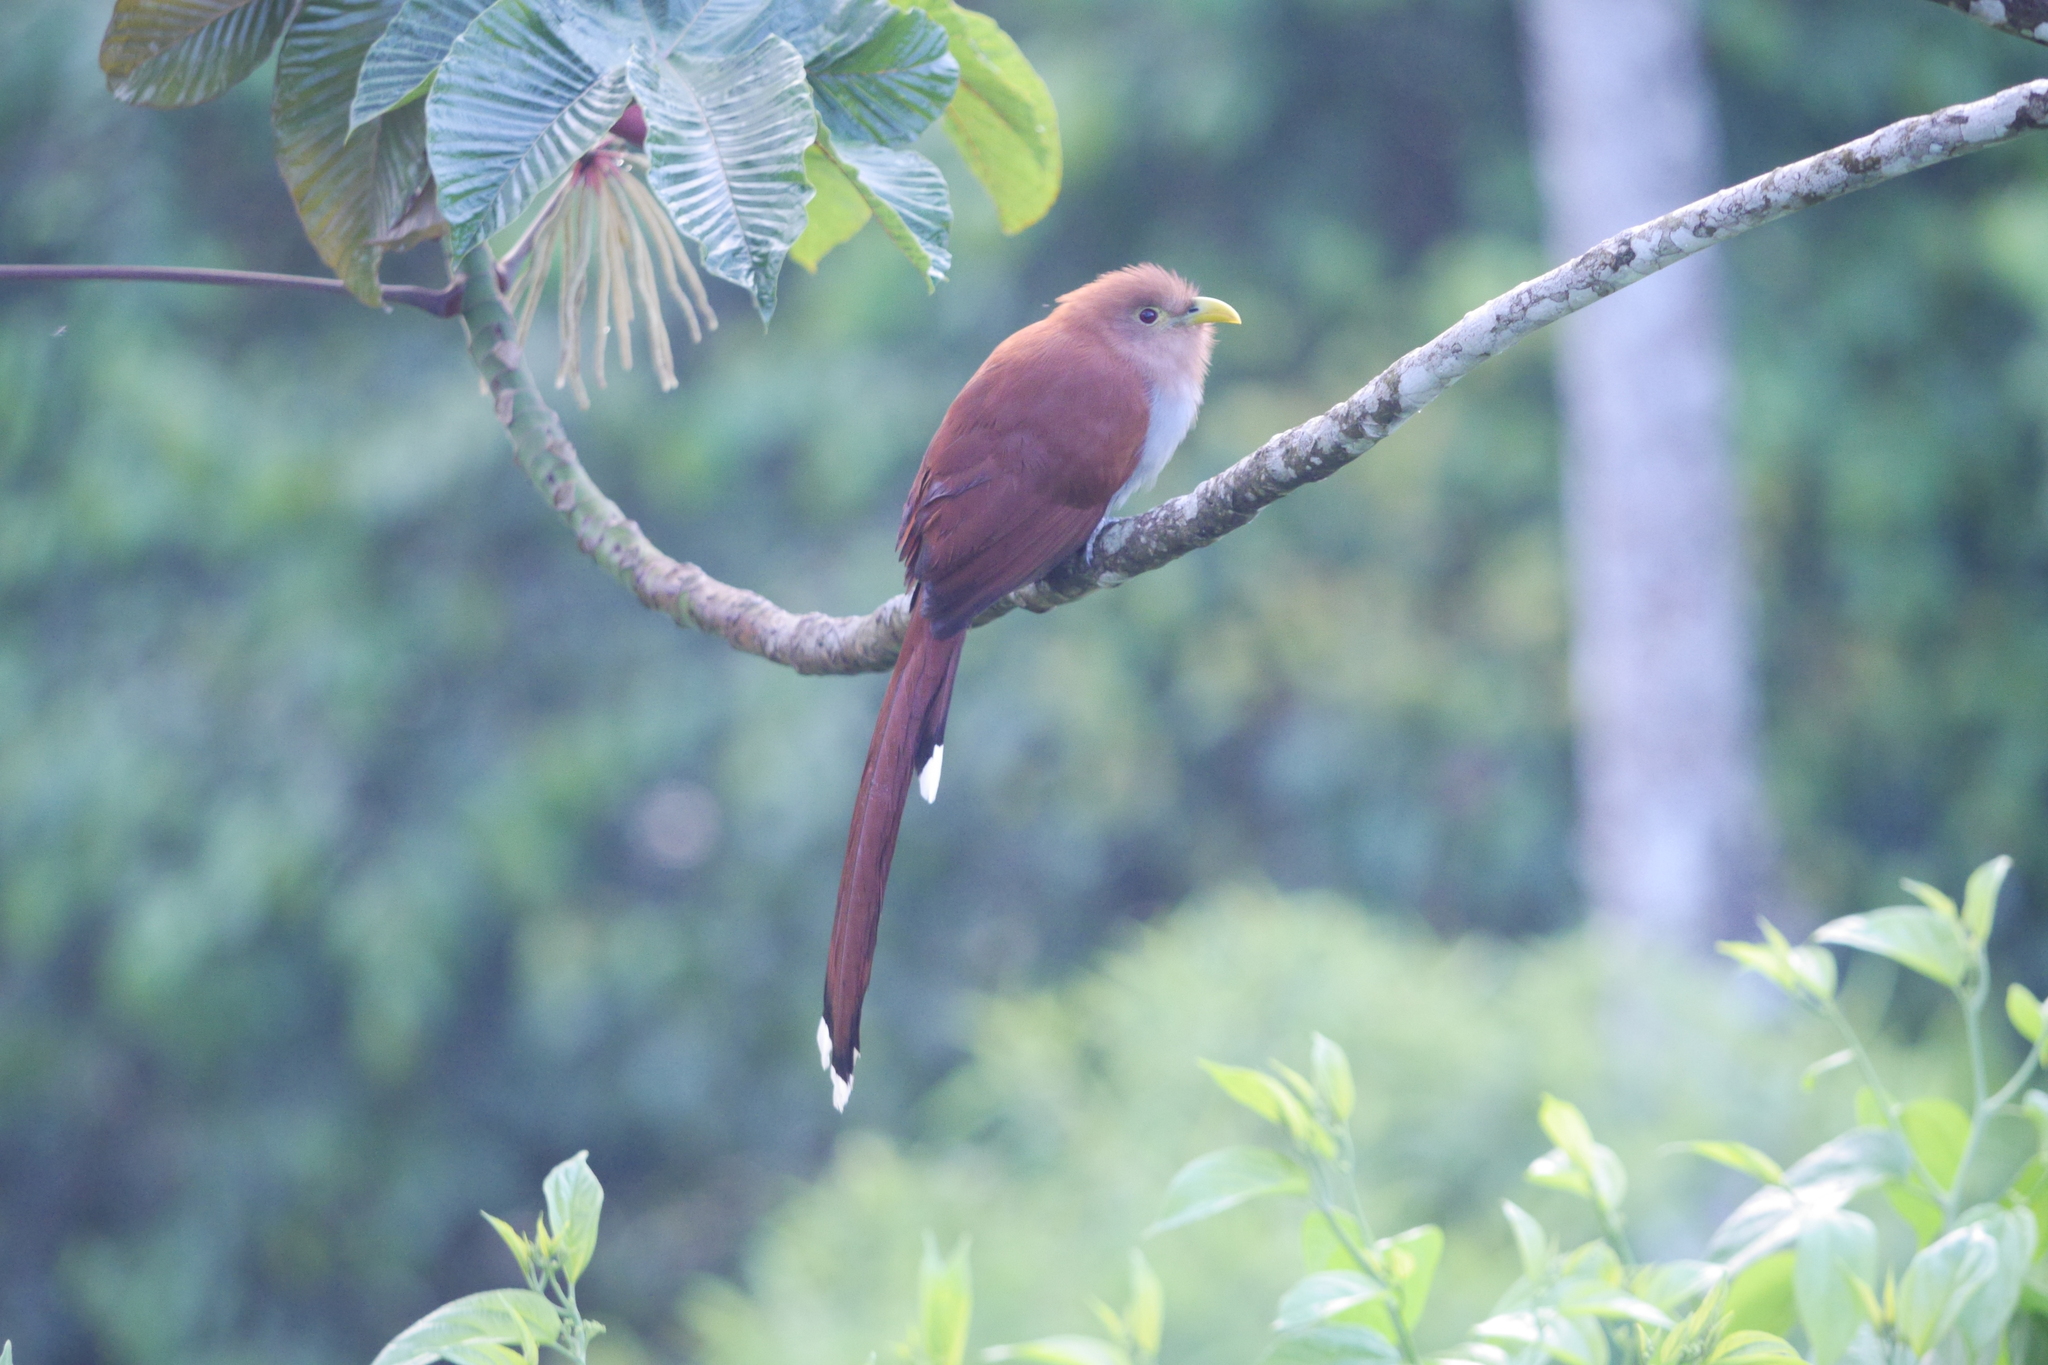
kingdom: Animalia
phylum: Chordata
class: Aves
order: Cuculiformes
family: Cuculidae
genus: Piaya
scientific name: Piaya cayana
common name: Squirrel cuckoo
